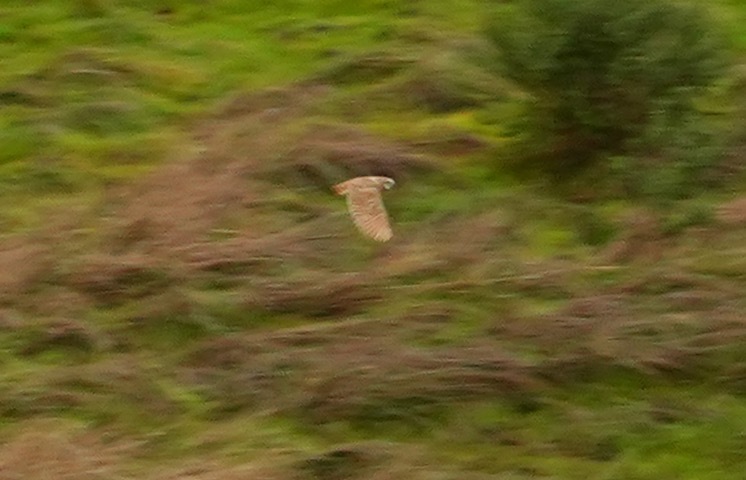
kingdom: Animalia
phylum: Chordata
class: Aves
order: Strigiformes
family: Strigidae
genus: Athene
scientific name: Athene cunicularia
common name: Burrowing owl
